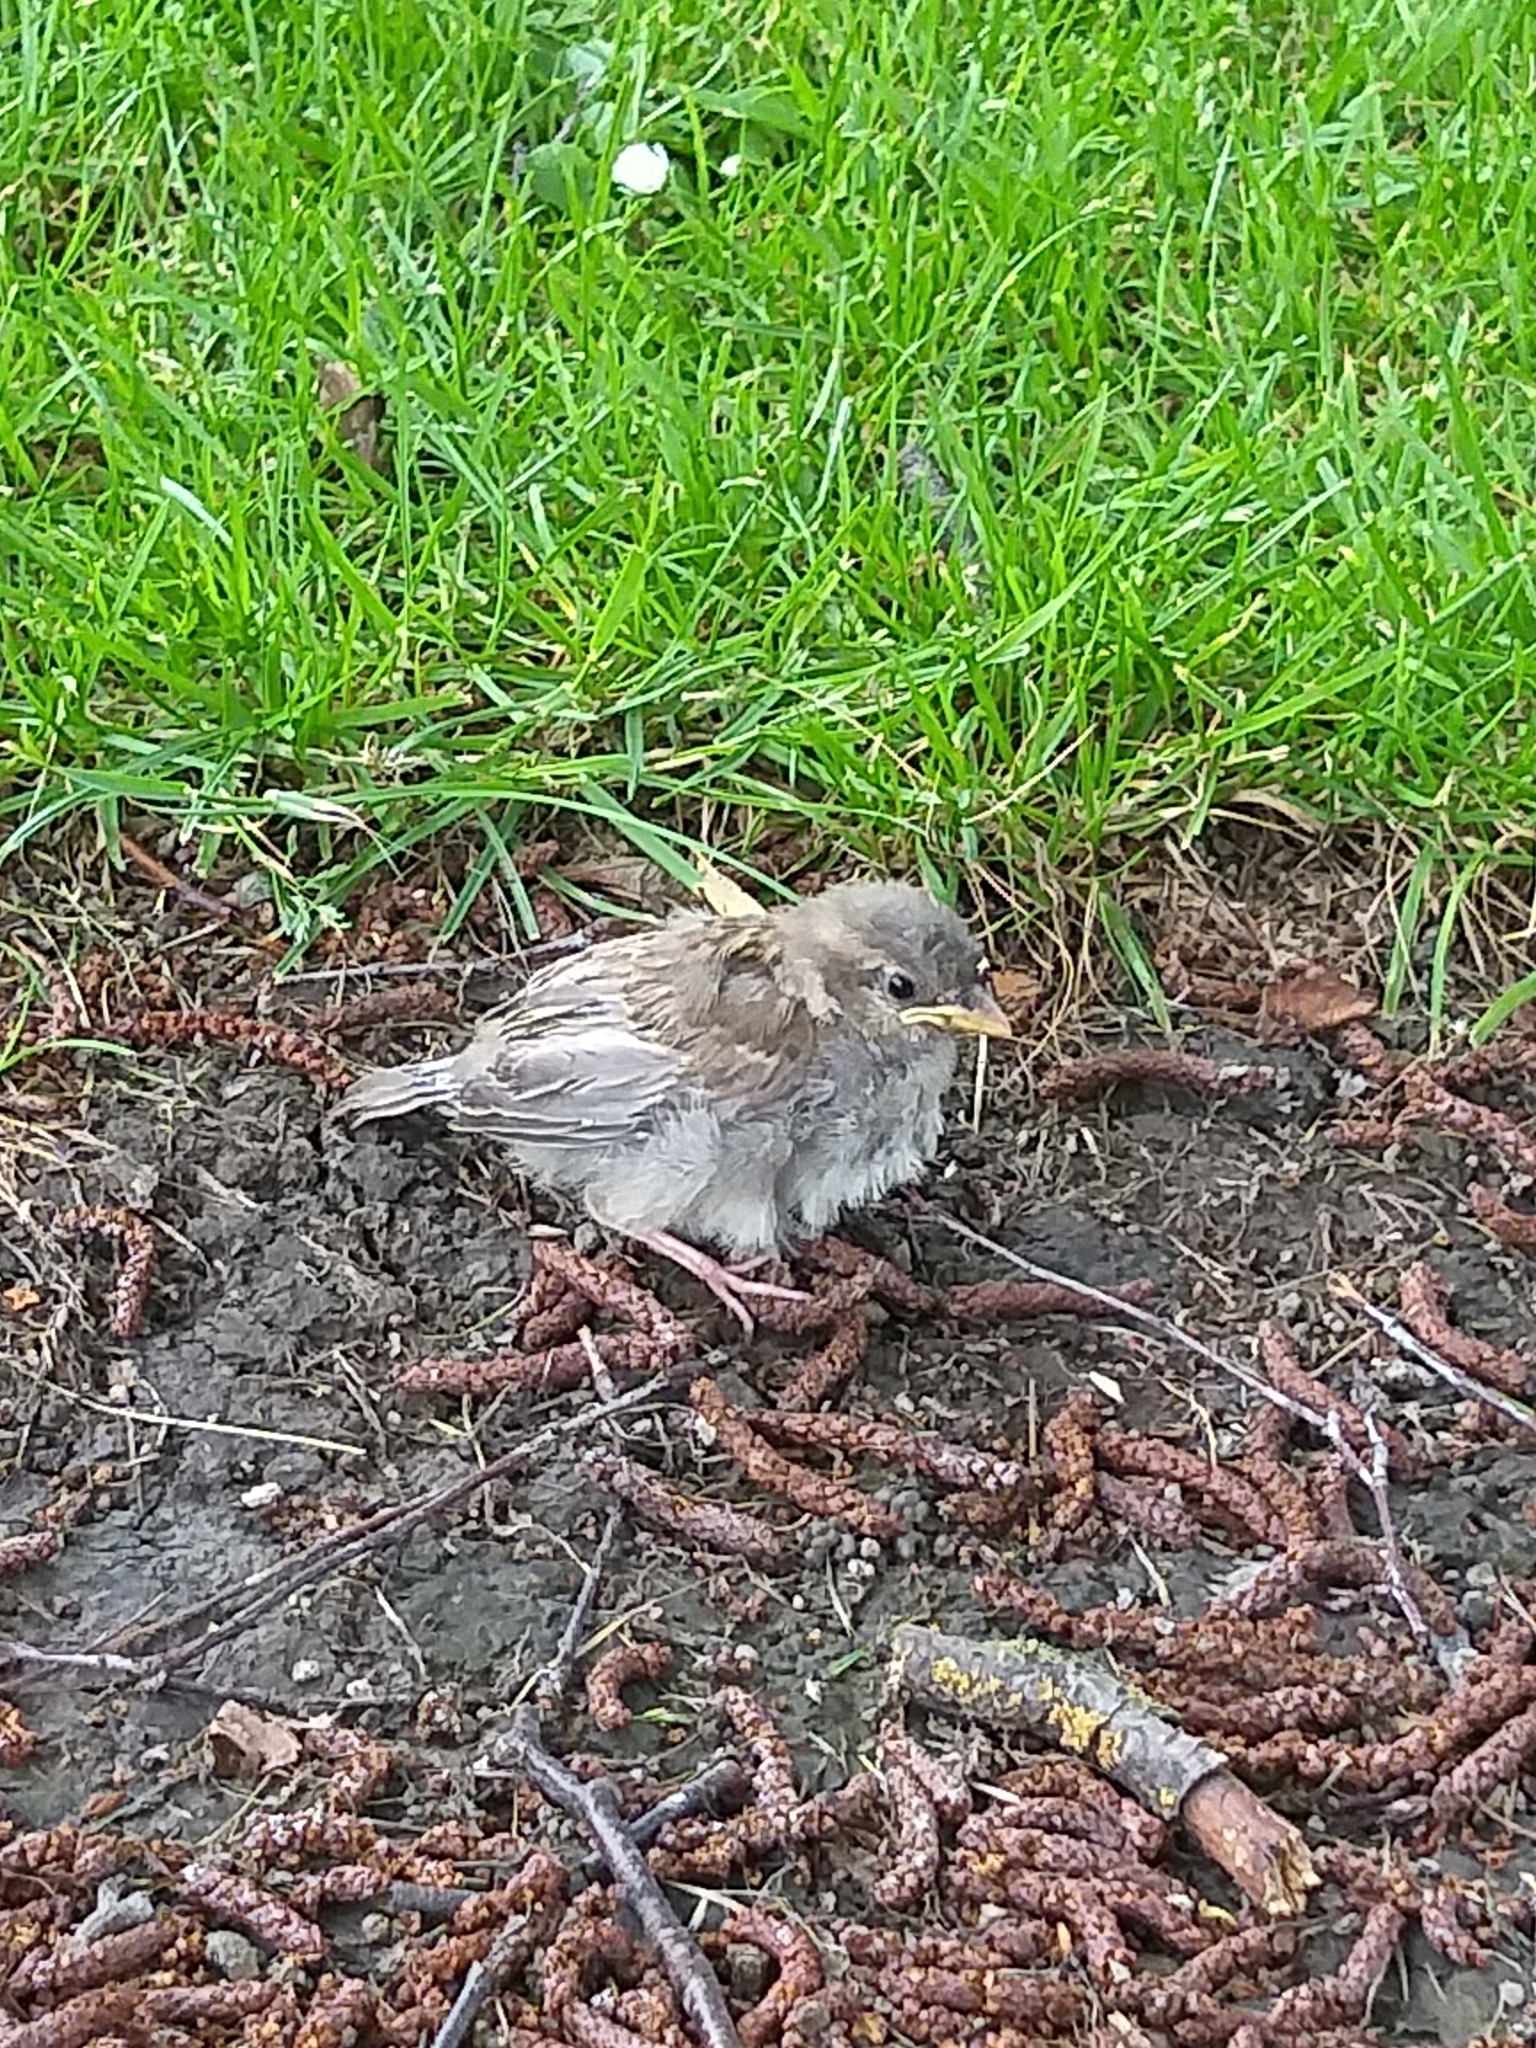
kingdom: Animalia
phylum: Chordata
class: Aves
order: Passeriformes
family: Passeridae
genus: Passer
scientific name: Passer domesticus
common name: House sparrow
